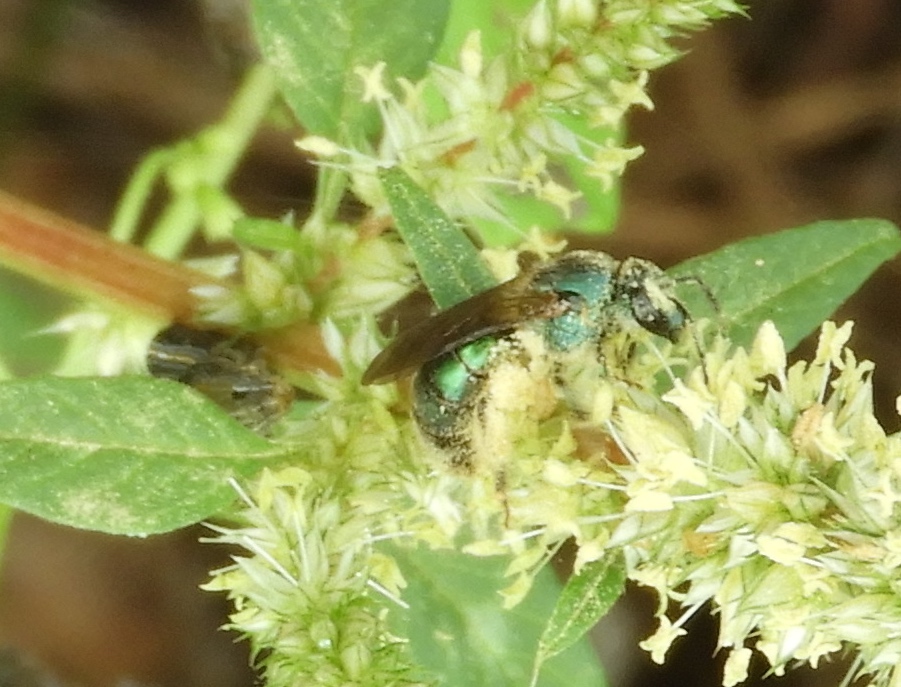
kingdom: Animalia
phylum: Arthropoda
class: Insecta
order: Hymenoptera
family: Halictidae
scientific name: Halictidae
